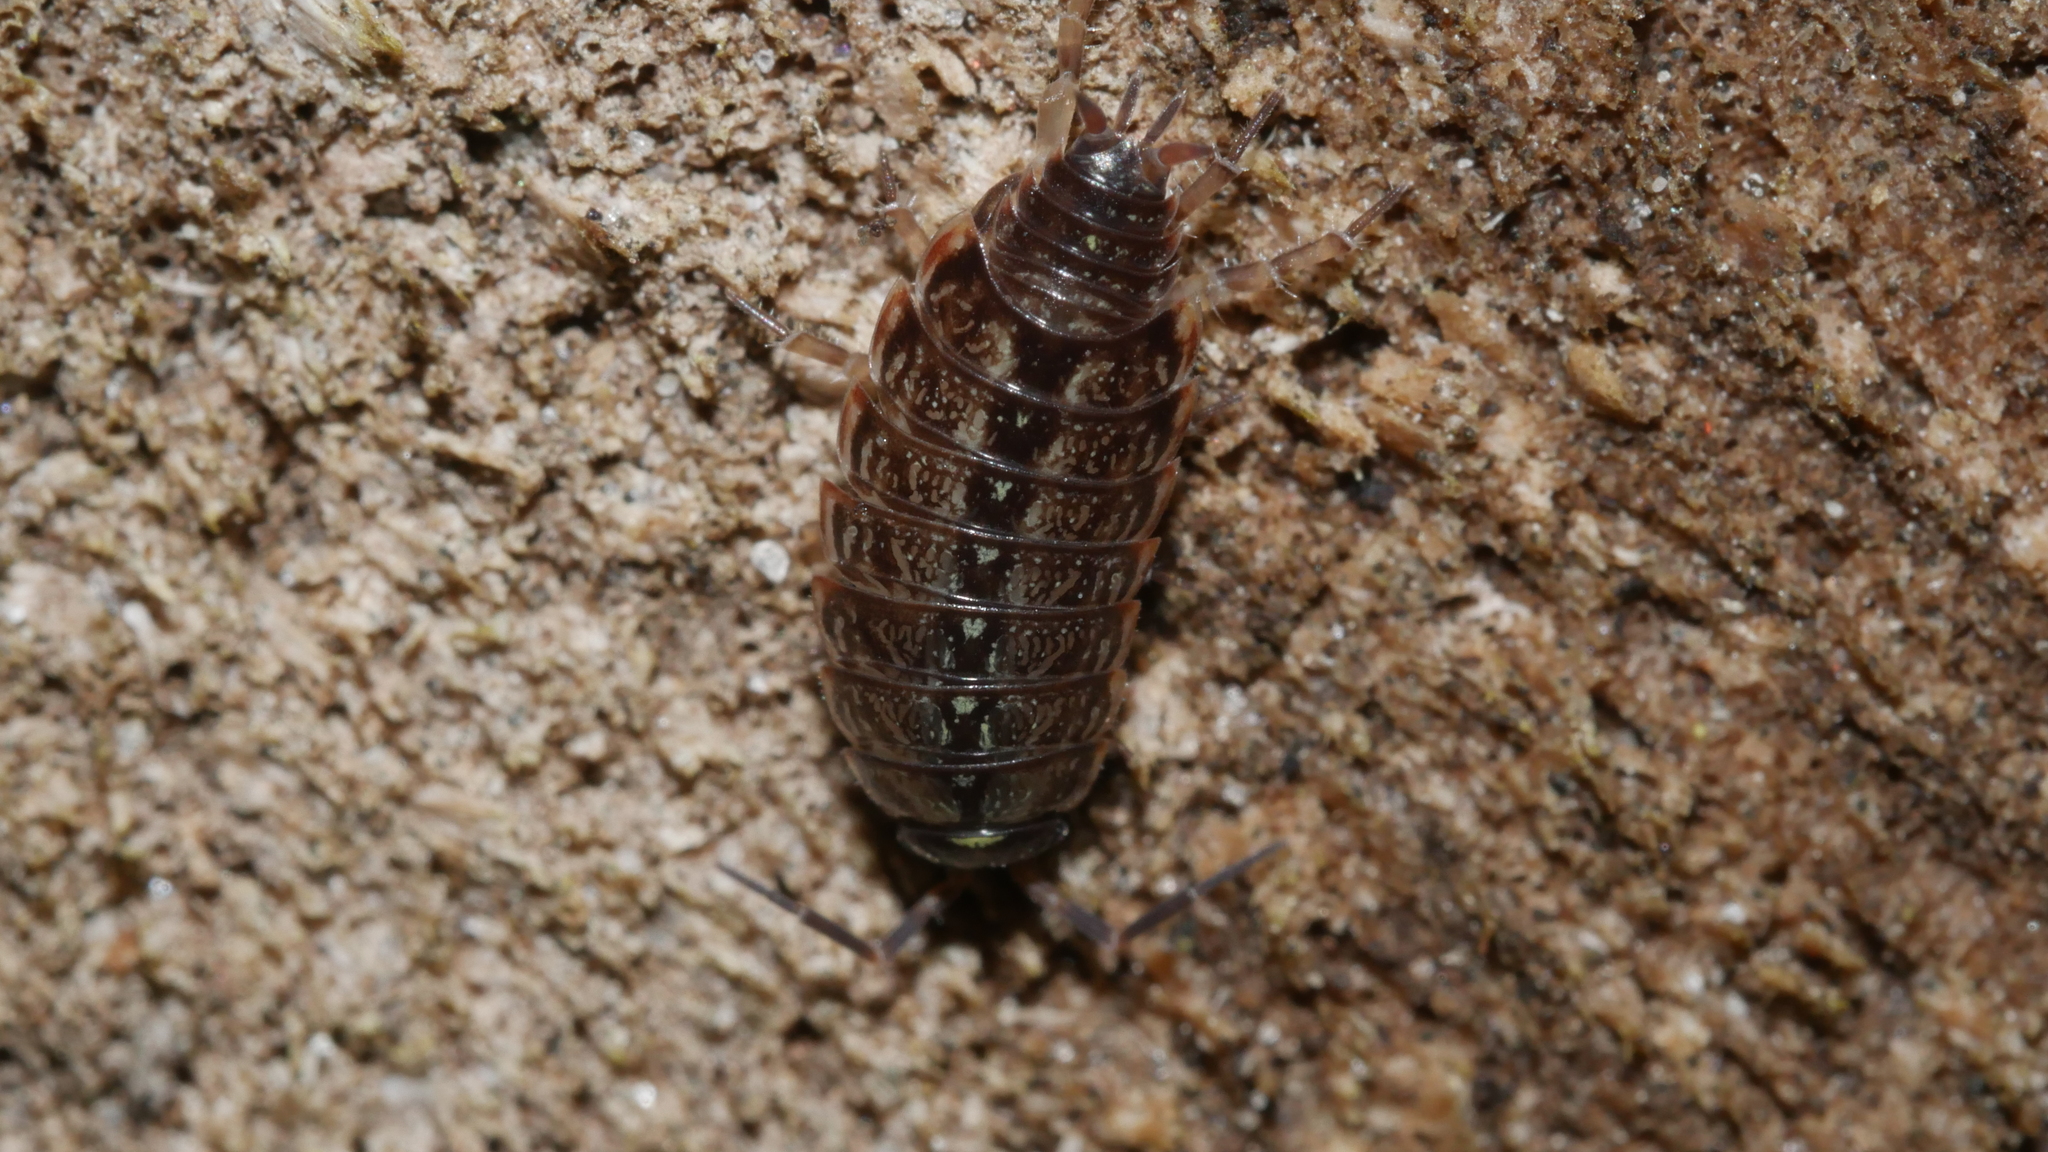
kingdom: Animalia
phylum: Arthropoda
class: Malacostraca
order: Isopoda
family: Philosciidae
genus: Philoscia
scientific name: Philoscia muscorum
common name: Common striped woodlouse
